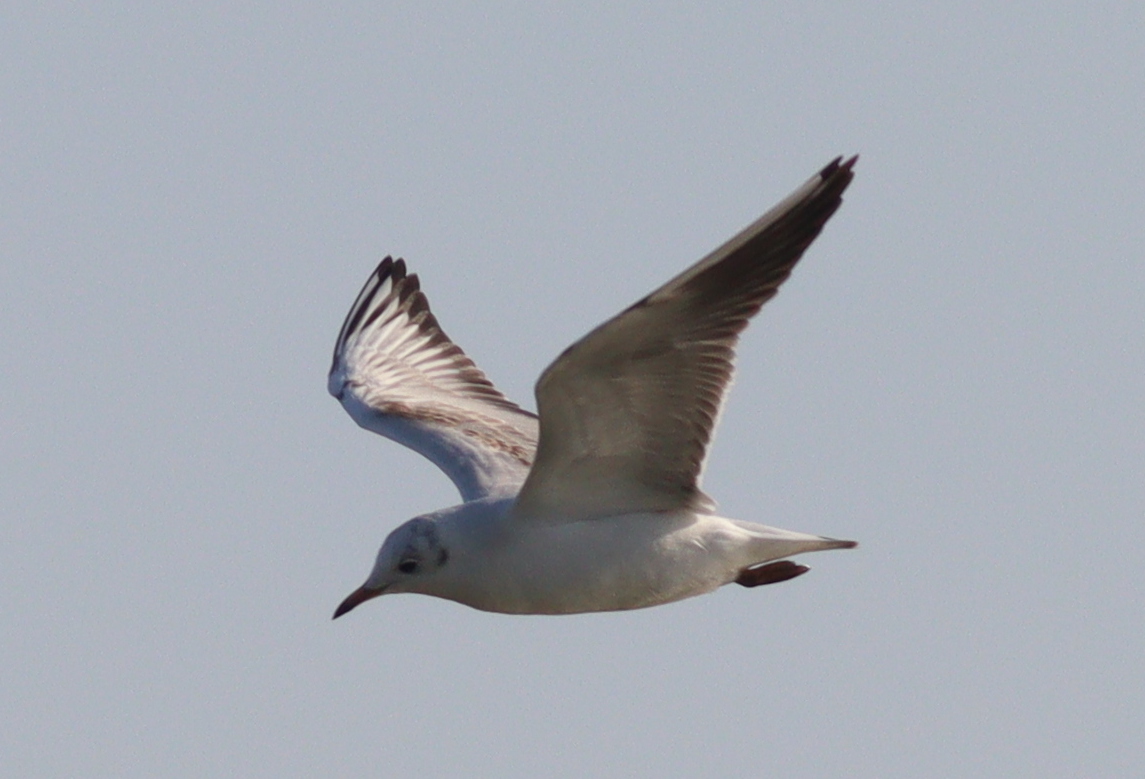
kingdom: Animalia
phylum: Chordata
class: Aves
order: Charadriiformes
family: Laridae
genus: Chroicocephalus
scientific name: Chroicocephalus ridibundus
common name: Black-headed gull
